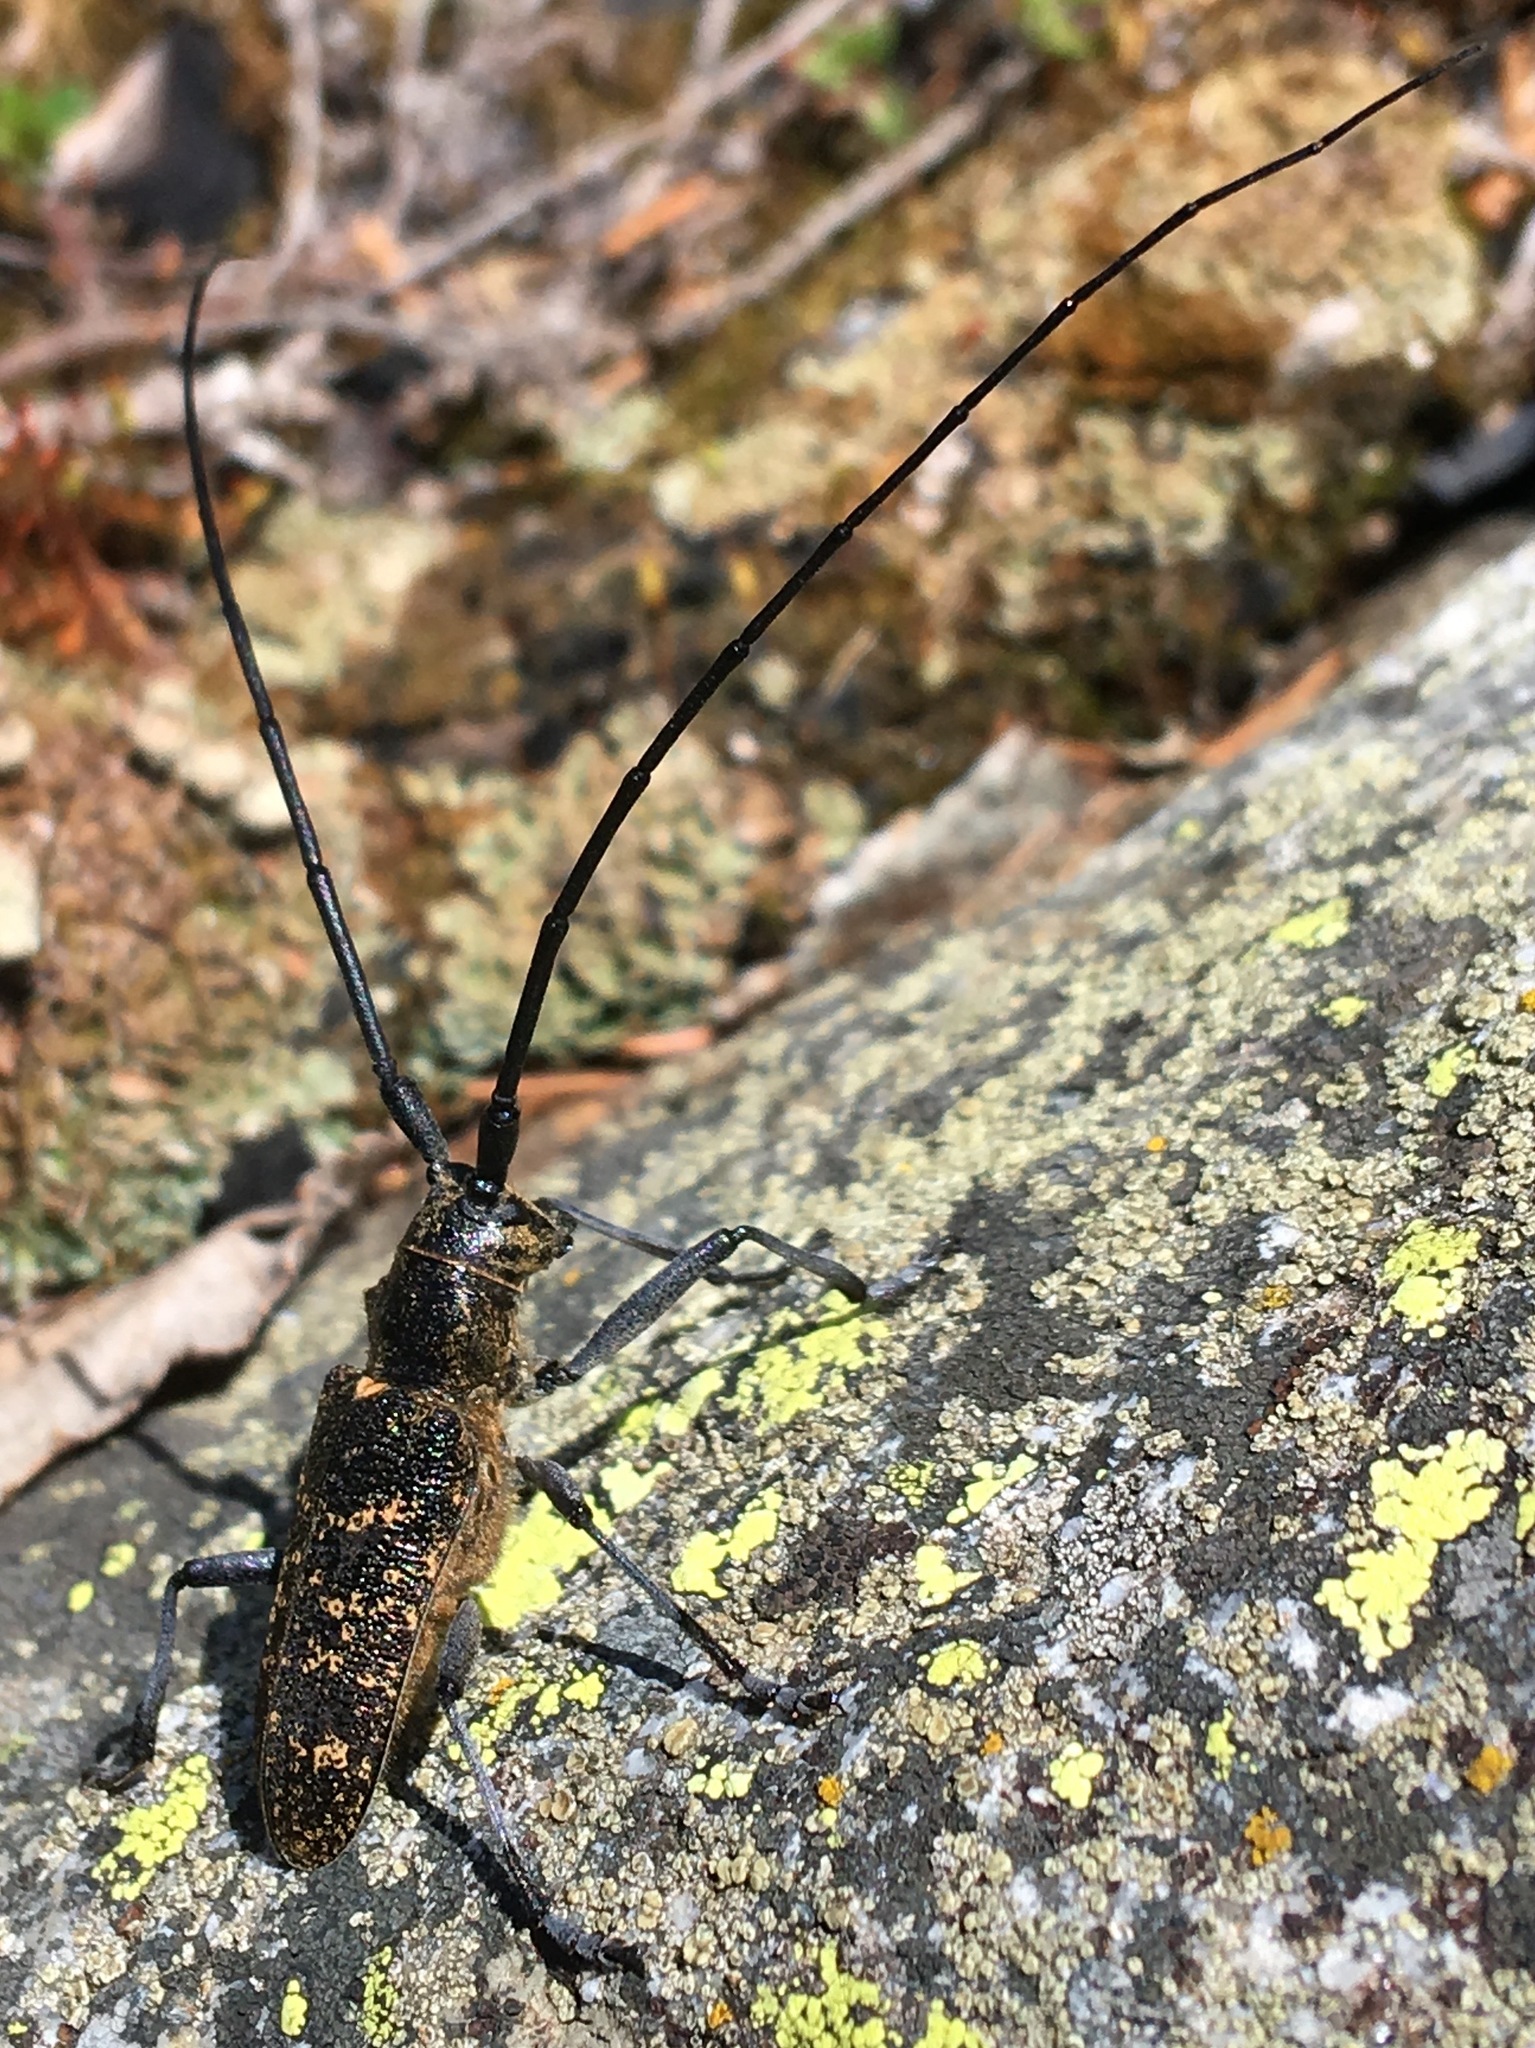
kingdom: Animalia
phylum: Arthropoda
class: Insecta
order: Coleoptera
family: Cerambycidae
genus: Monochamus
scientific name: Monochamus sutor
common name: Pine sawyer
